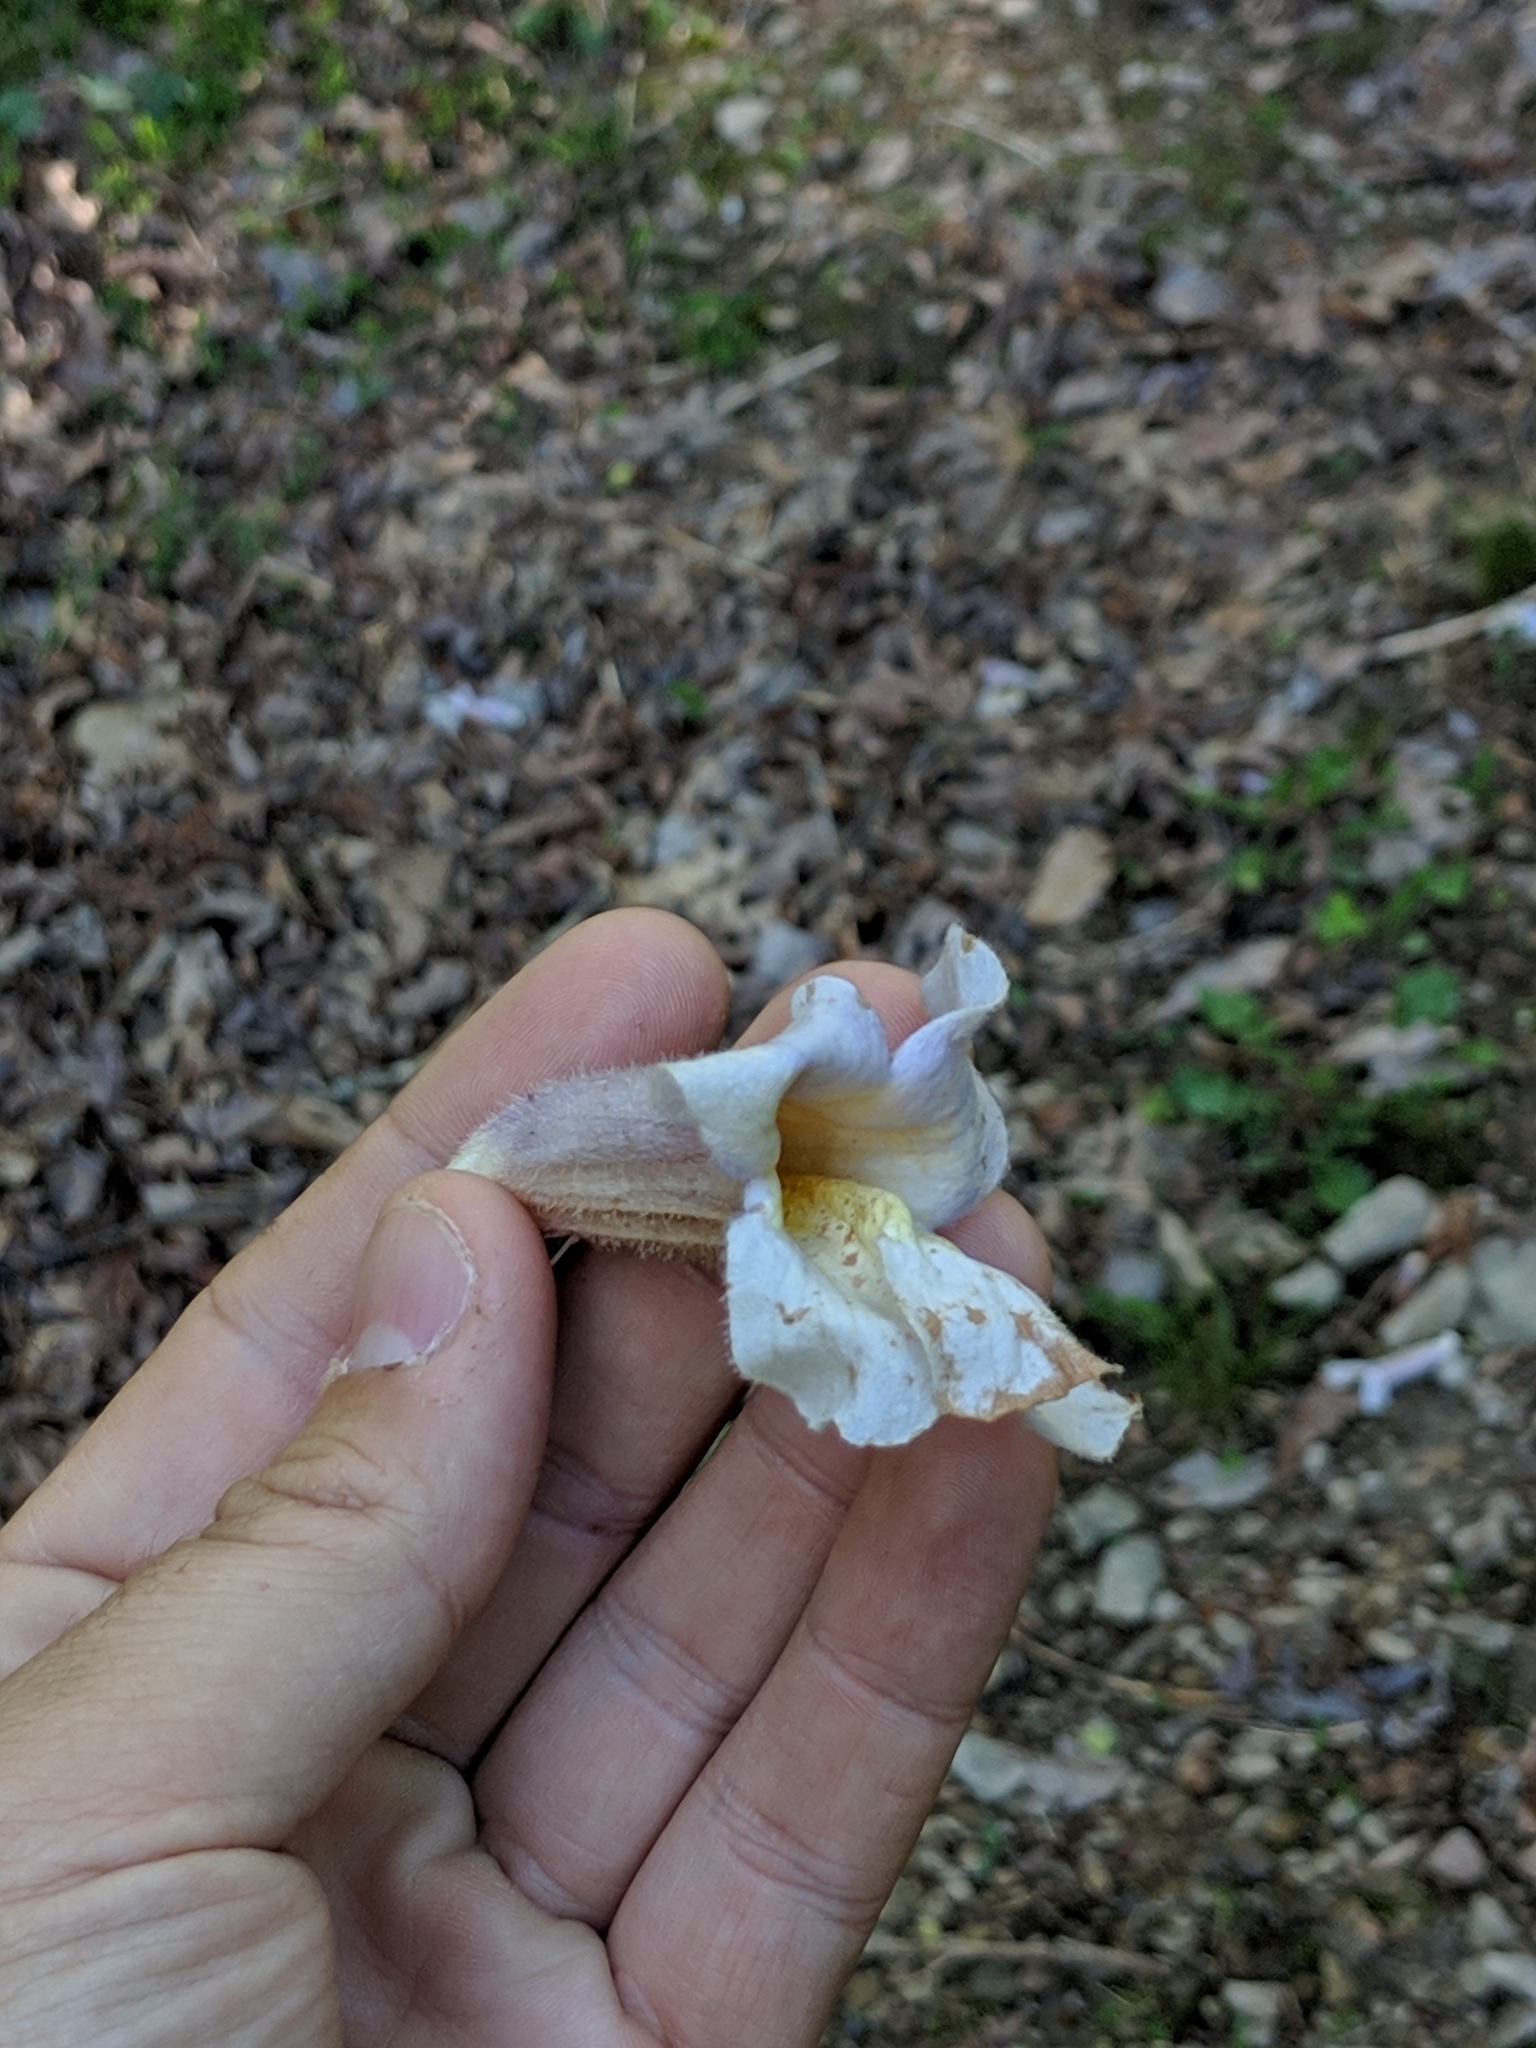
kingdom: Plantae
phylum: Tracheophyta
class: Magnoliopsida
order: Lamiales
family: Paulowniaceae
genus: Paulownia
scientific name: Paulownia tomentosa
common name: Foxglove-tree
